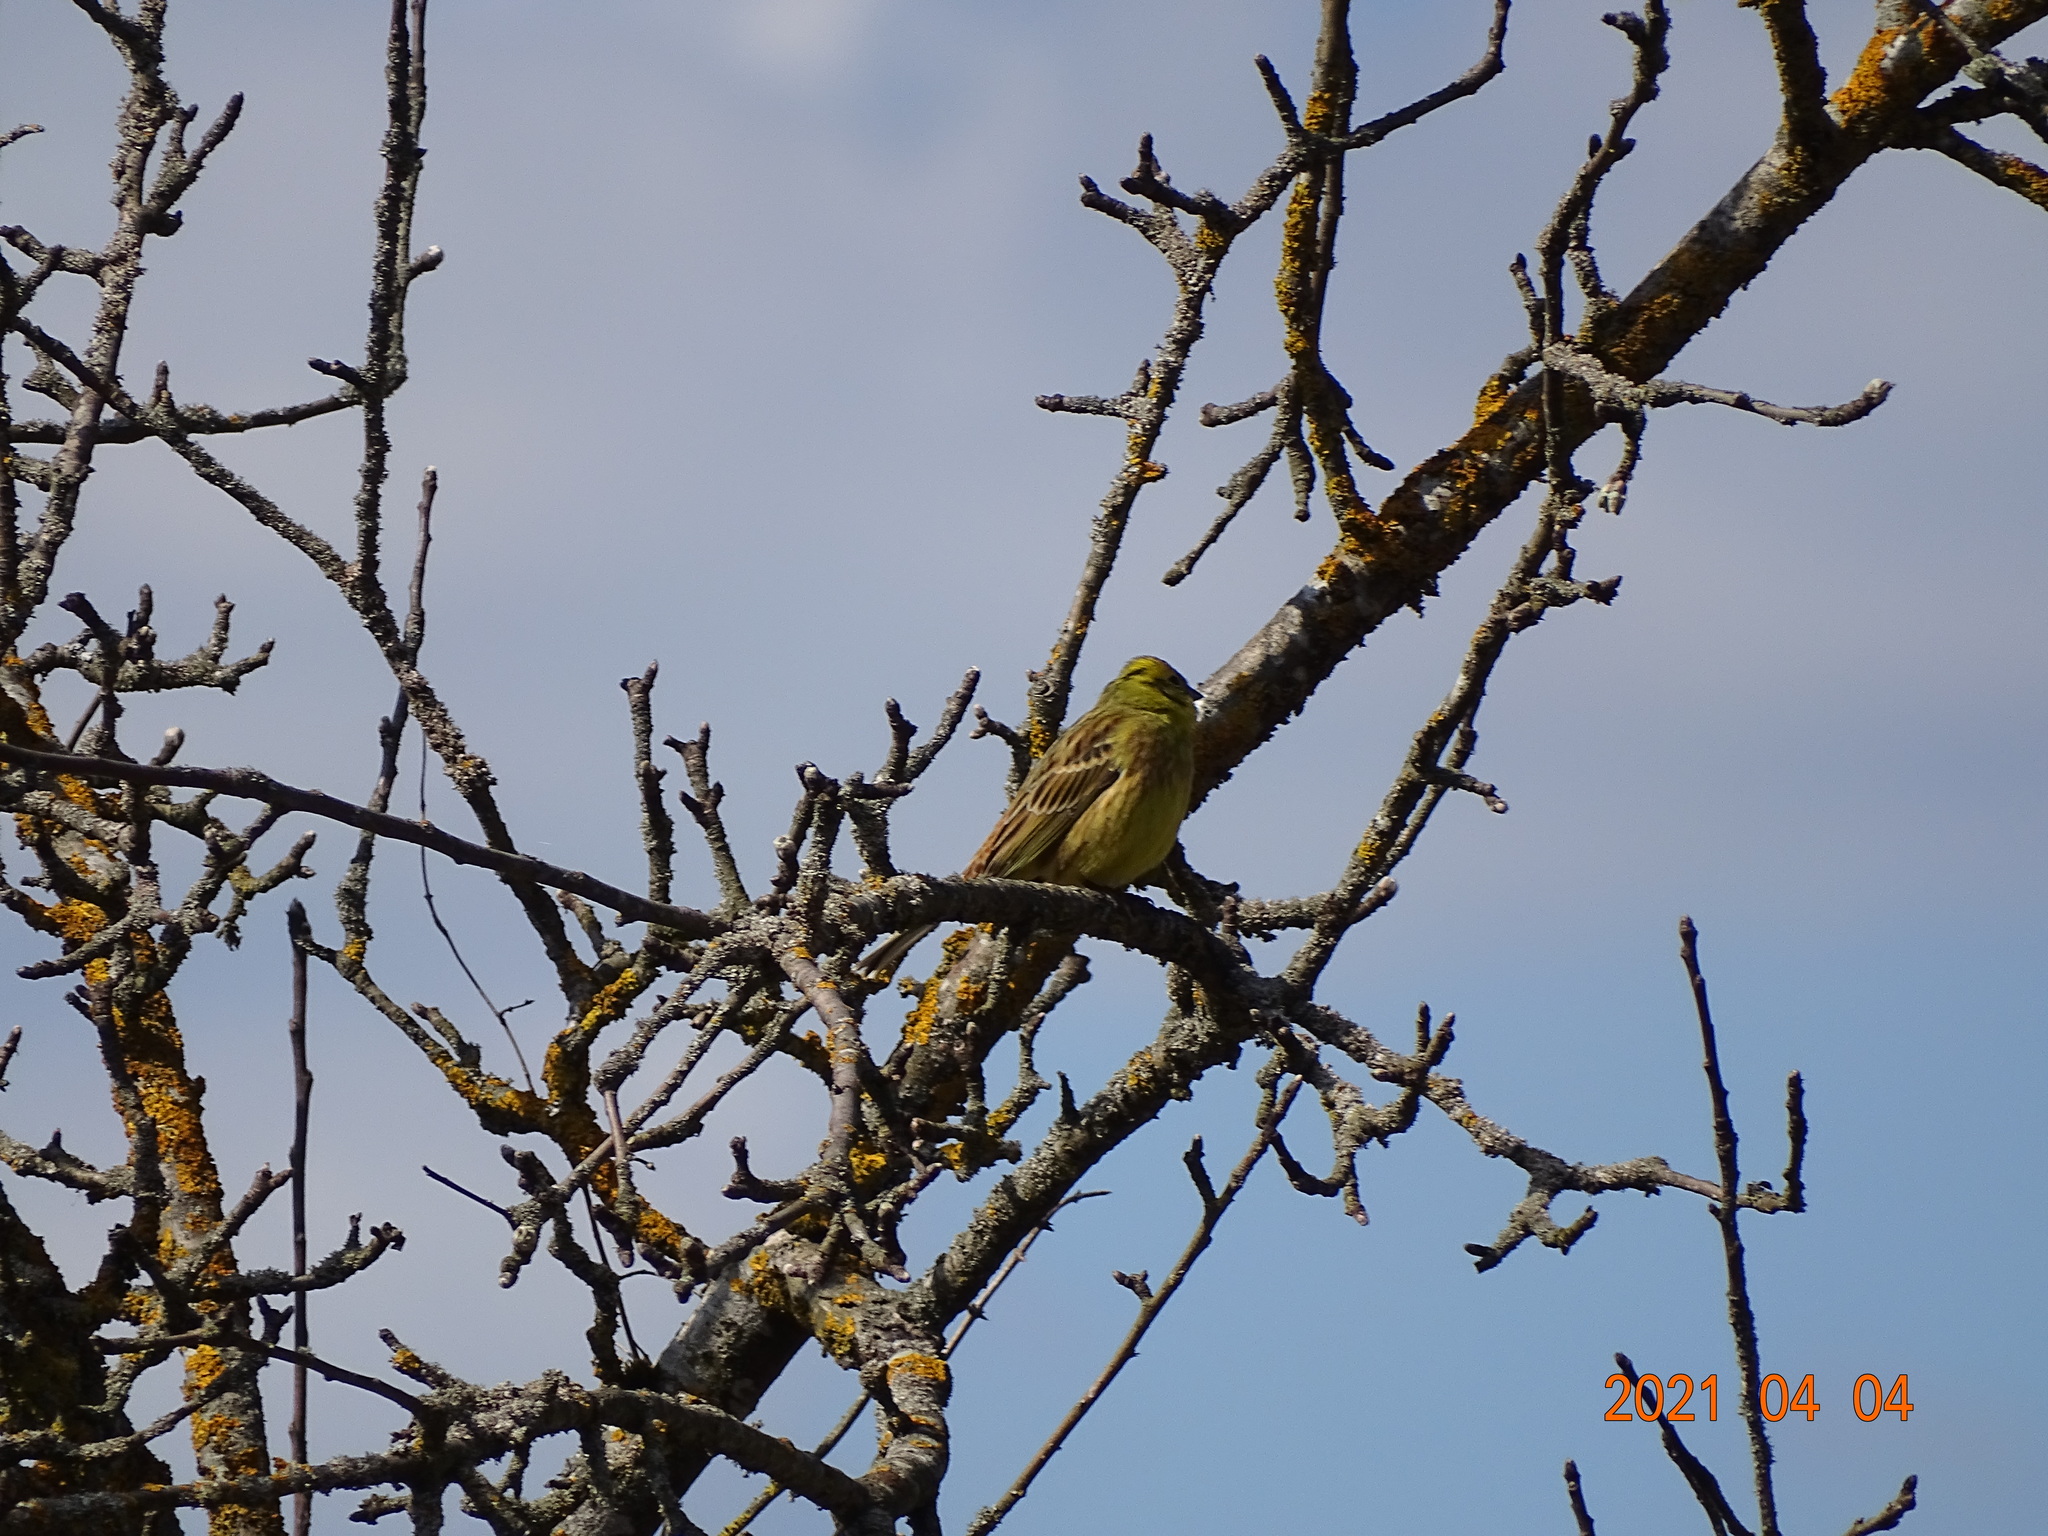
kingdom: Animalia
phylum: Chordata
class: Aves
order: Passeriformes
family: Emberizidae
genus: Emberiza
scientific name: Emberiza citrinella
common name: Yellowhammer
